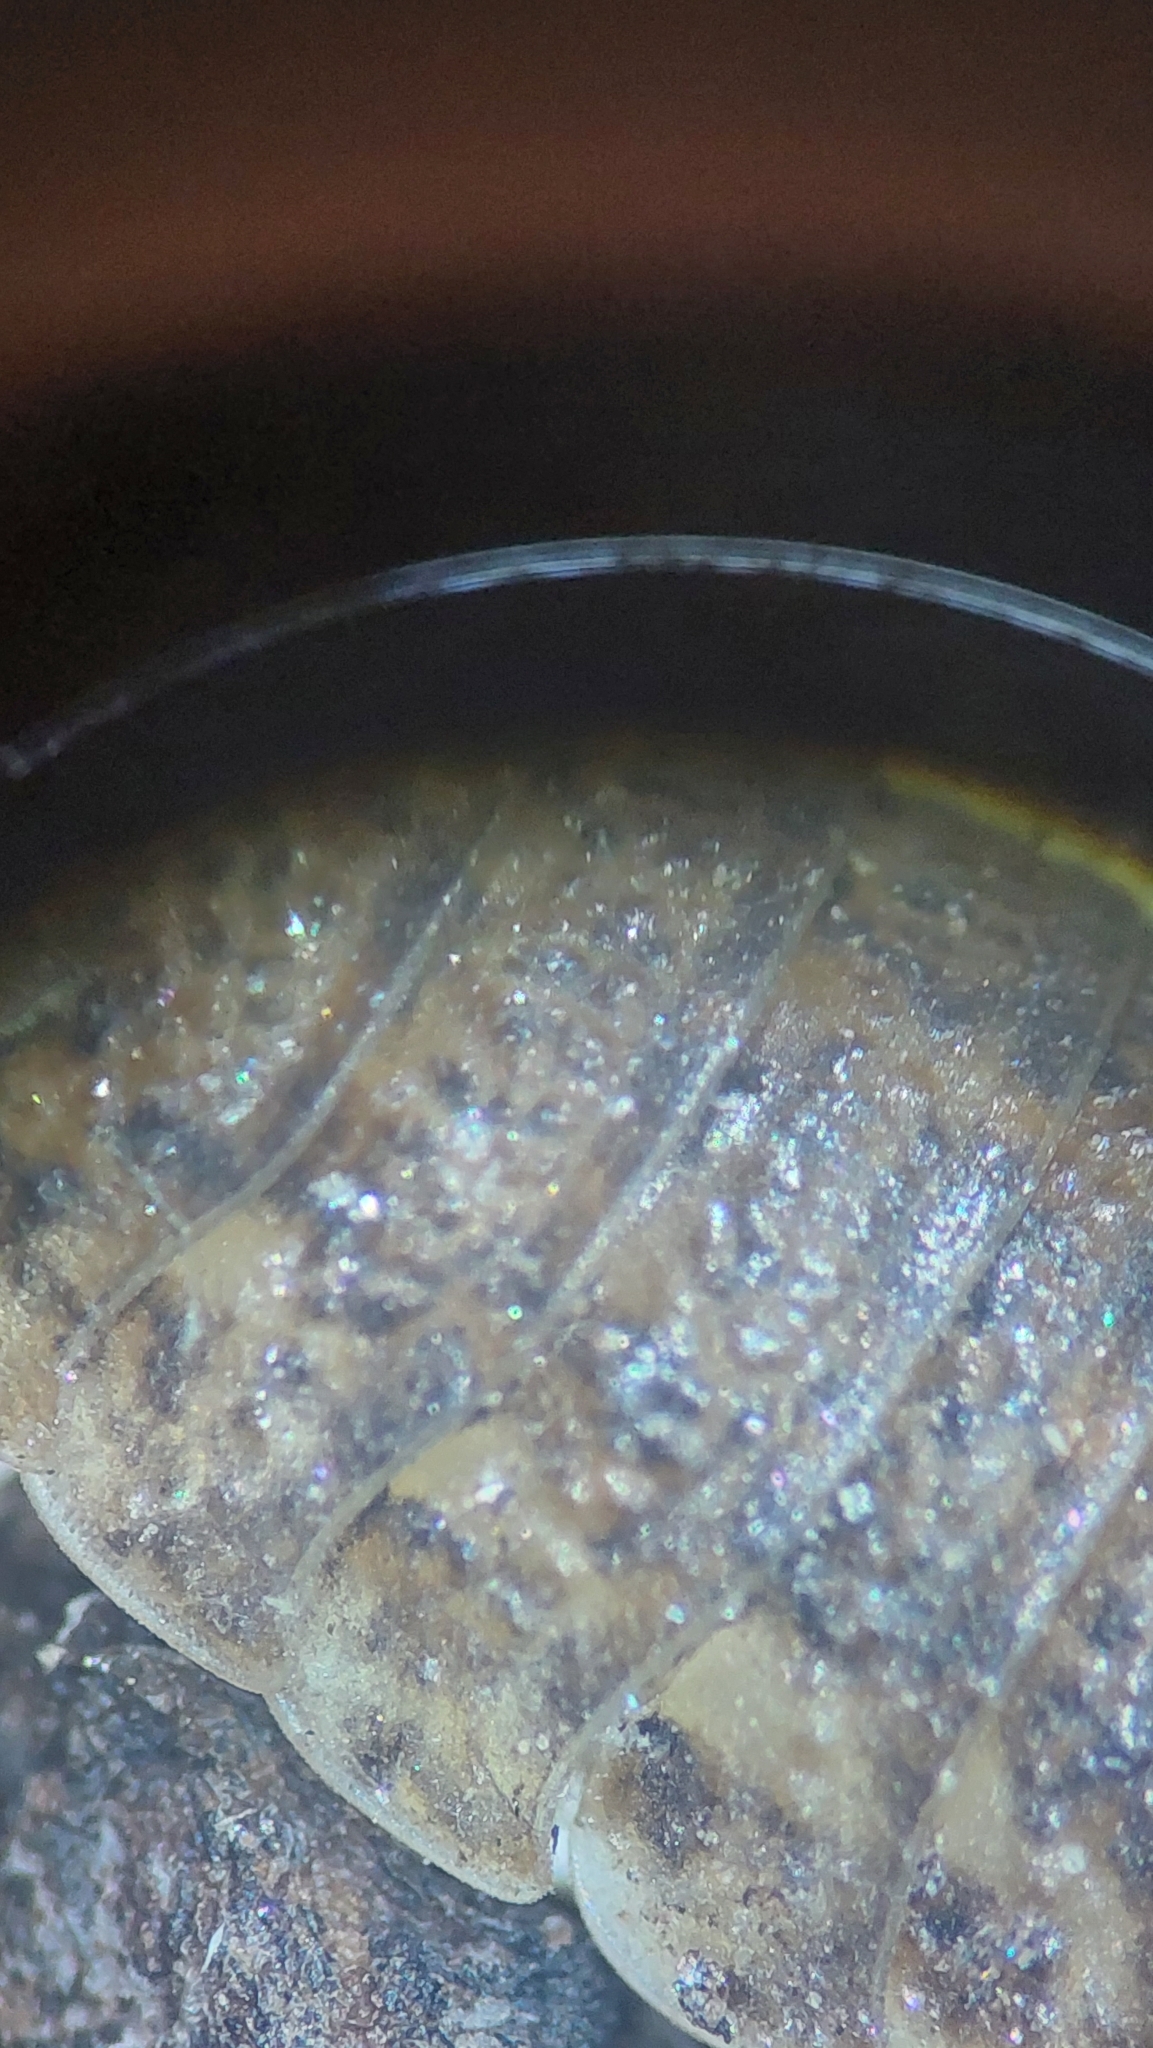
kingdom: Animalia
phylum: Arthropoda
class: Malacostraca
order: Isopoda
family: Trachelipodidae
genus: Trachelipus
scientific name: Trachelipus rathkii
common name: Isopod
